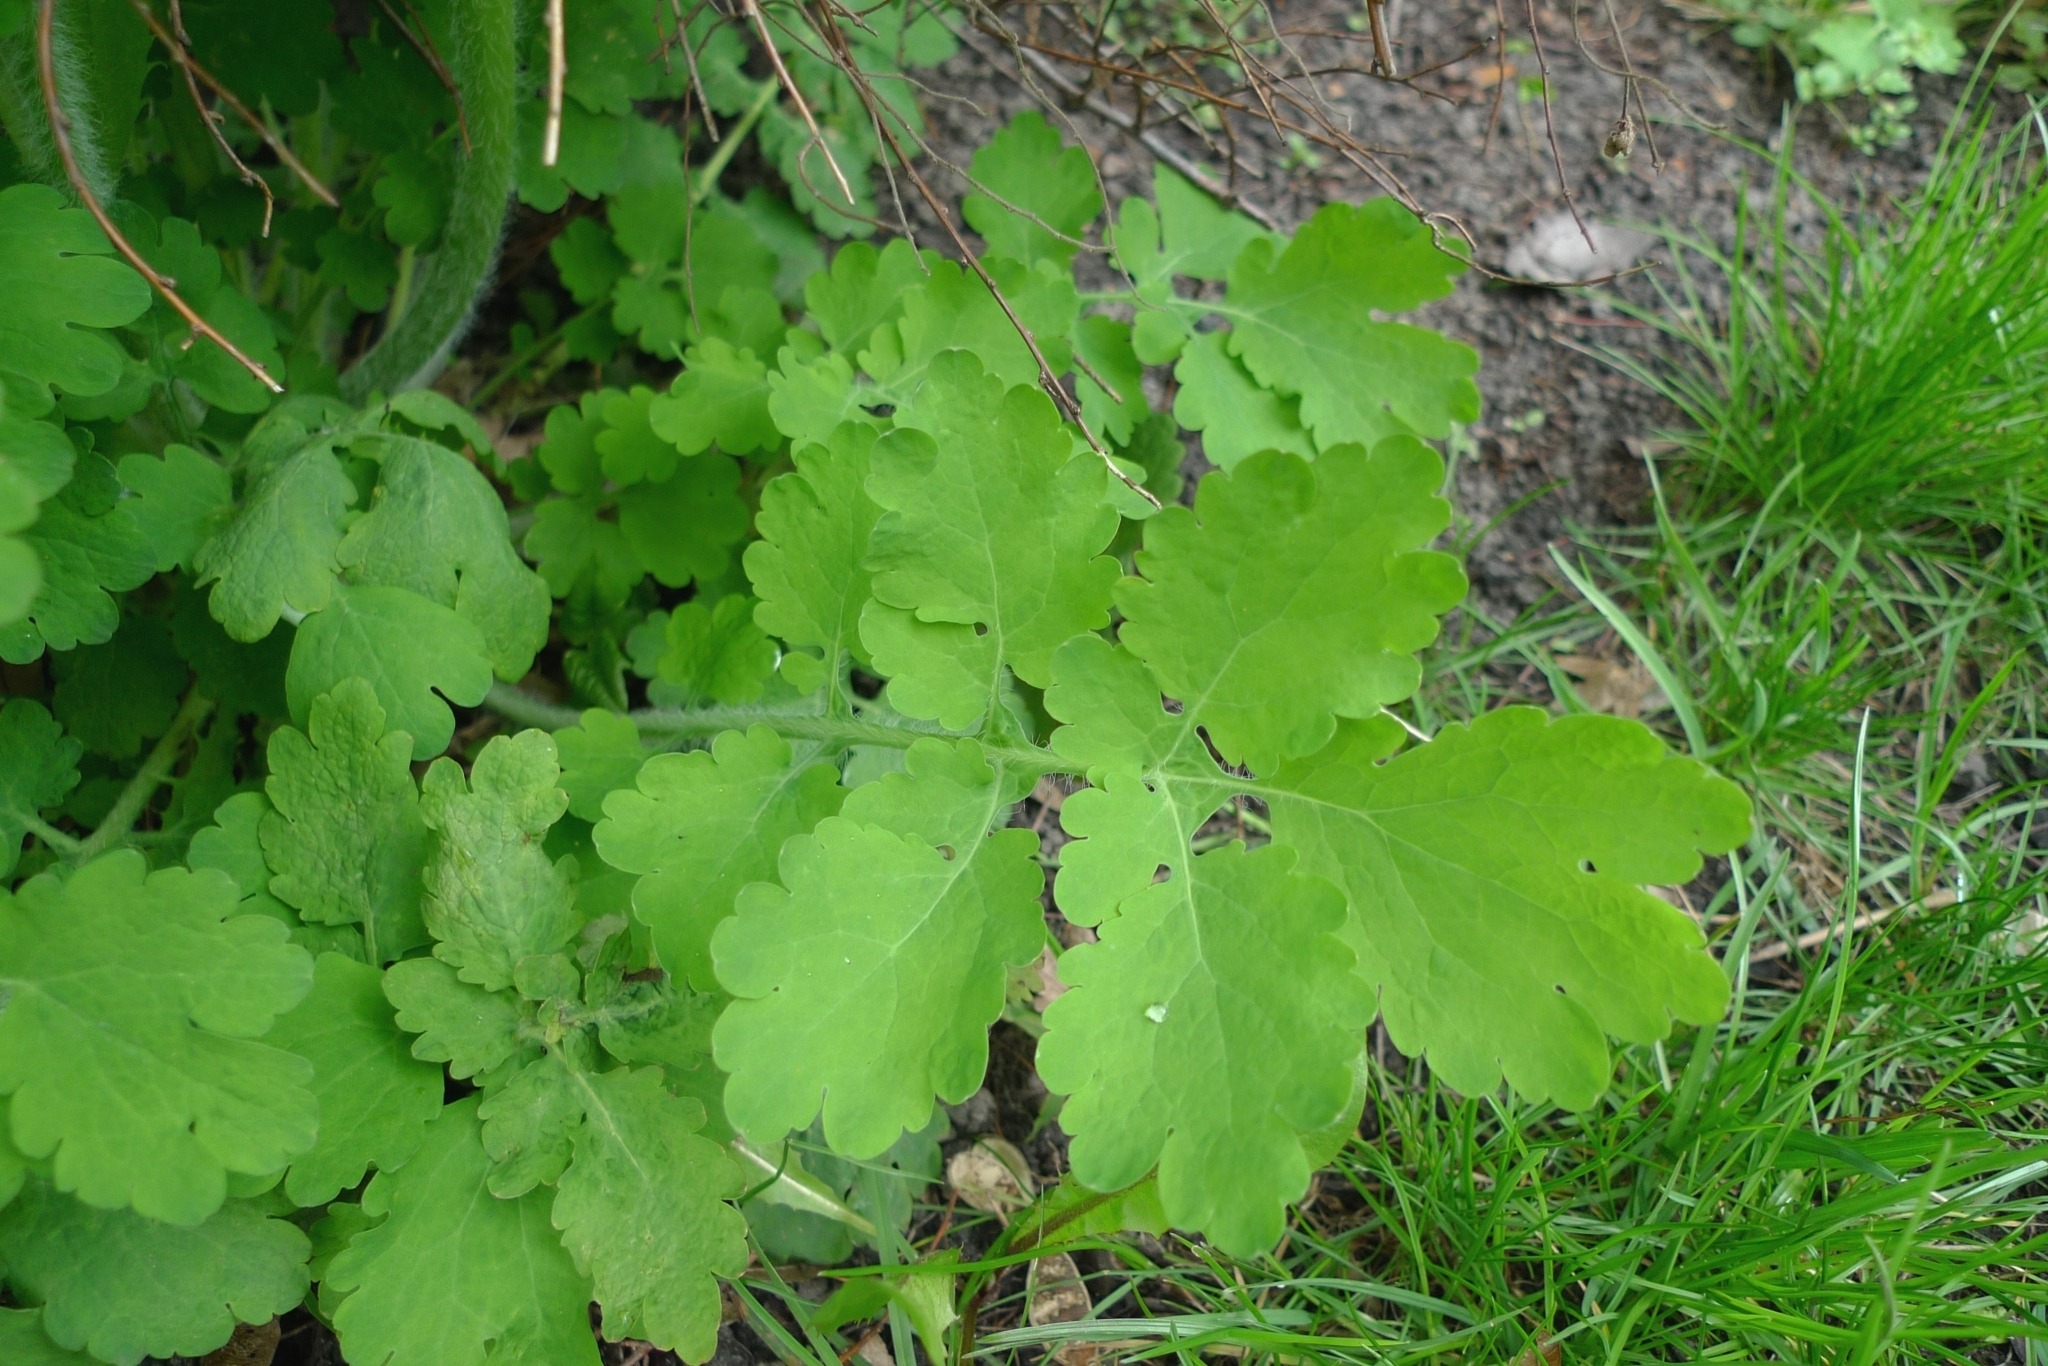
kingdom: Plantae
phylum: Tracheophyta
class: Magnoliopsida
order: Ranunculales
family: Papaveraceae
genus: Chelidonium
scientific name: Chelidonium majus
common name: Greater celandine
